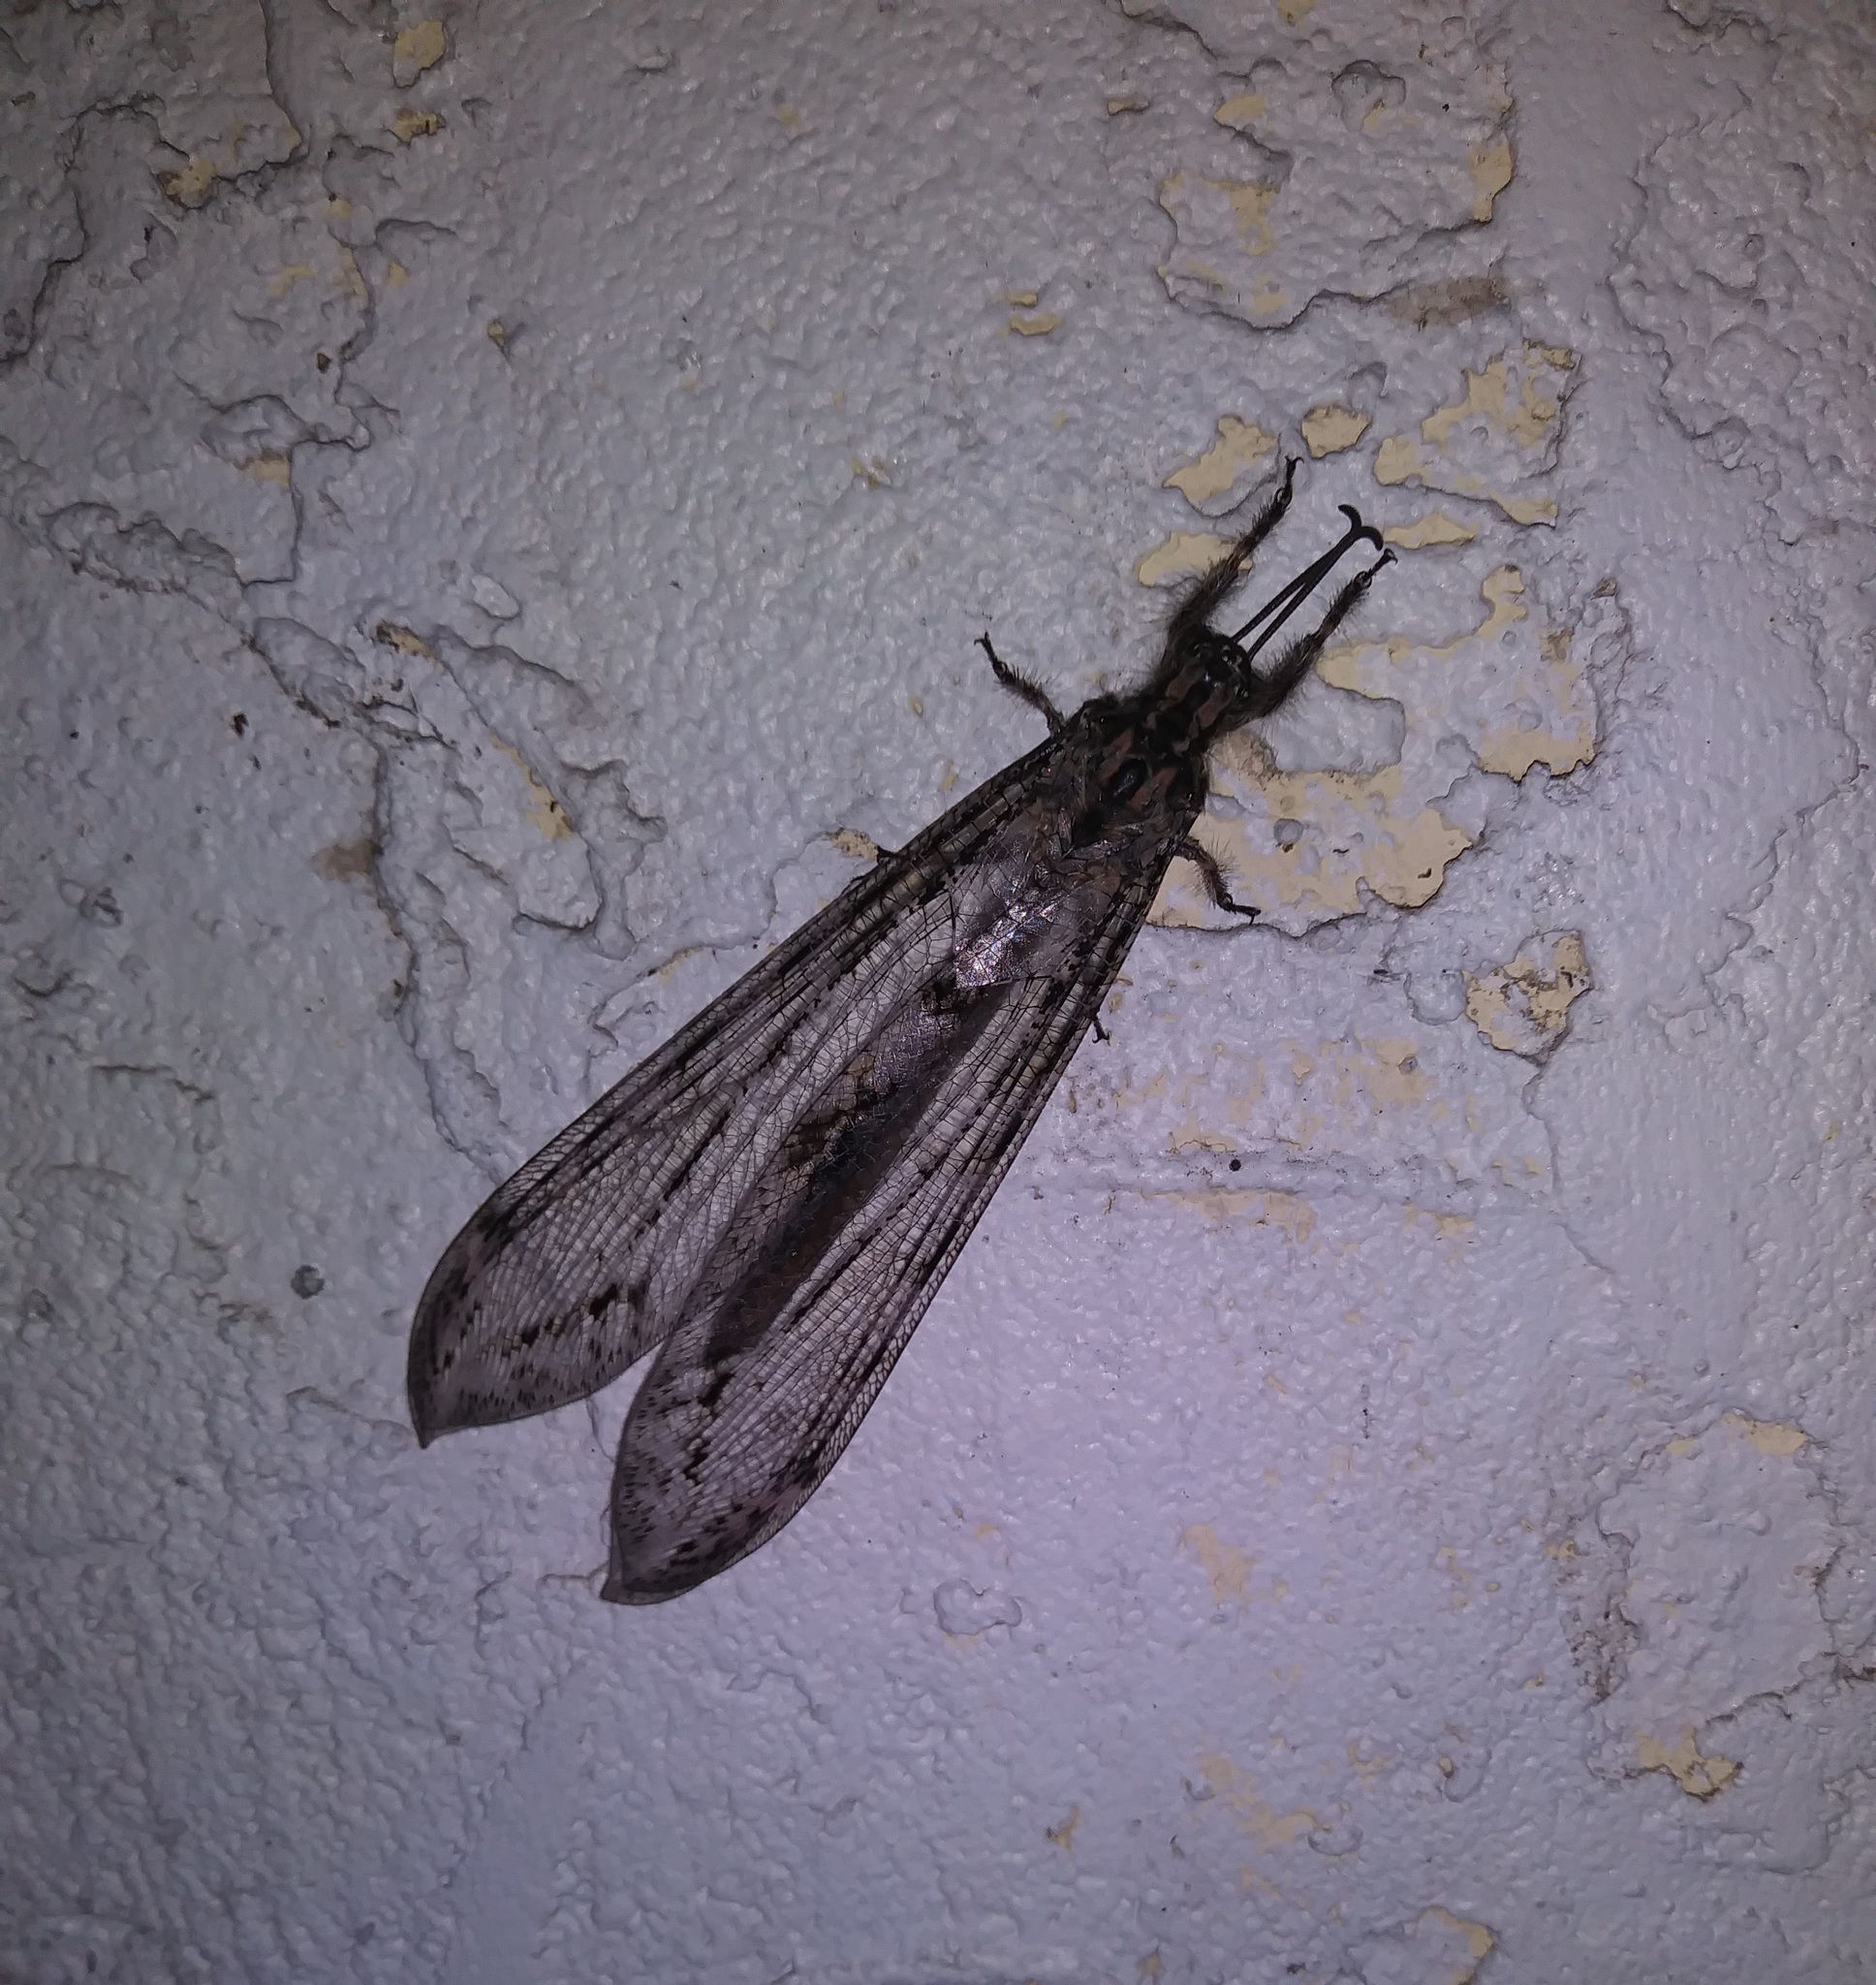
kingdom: Animalia
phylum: Arthropoda
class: Insecta
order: Neuroptera
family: Myrmeleontidae
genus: Vella
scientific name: Vella americana
